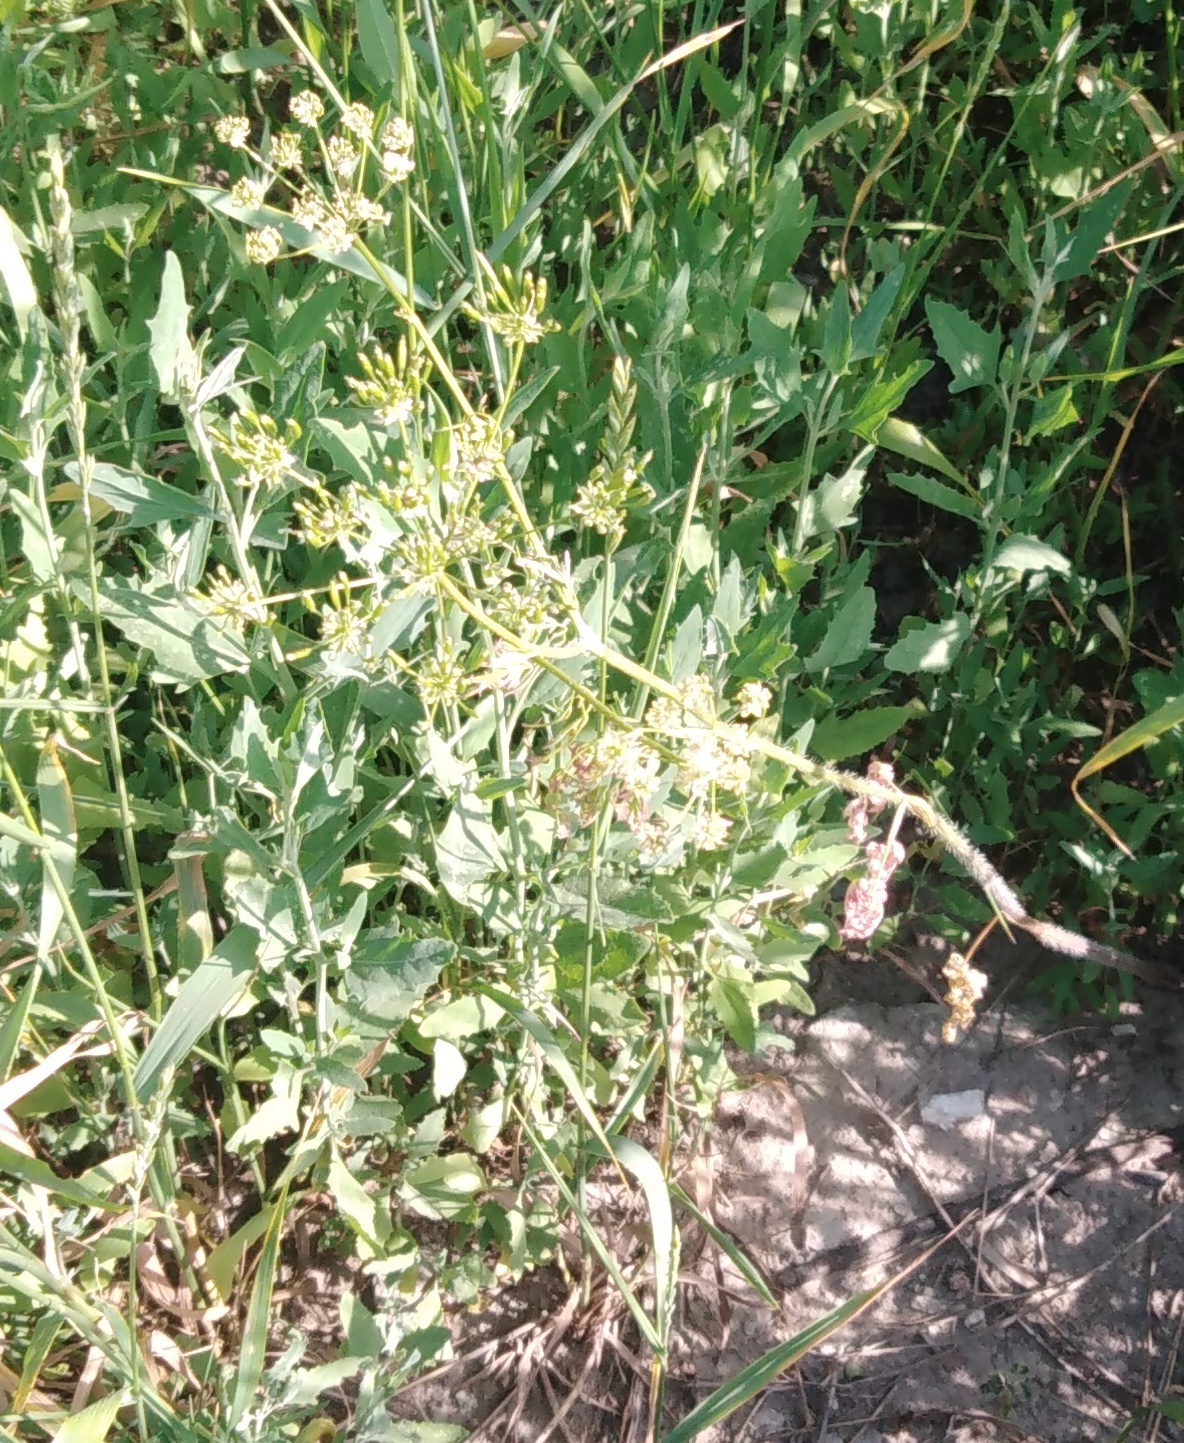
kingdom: Plantae
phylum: Tracheophyta
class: Magnoliopsida
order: Apiales
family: Apiaceae
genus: Chaerophyllum
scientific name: Chaerophyllum prescottii
